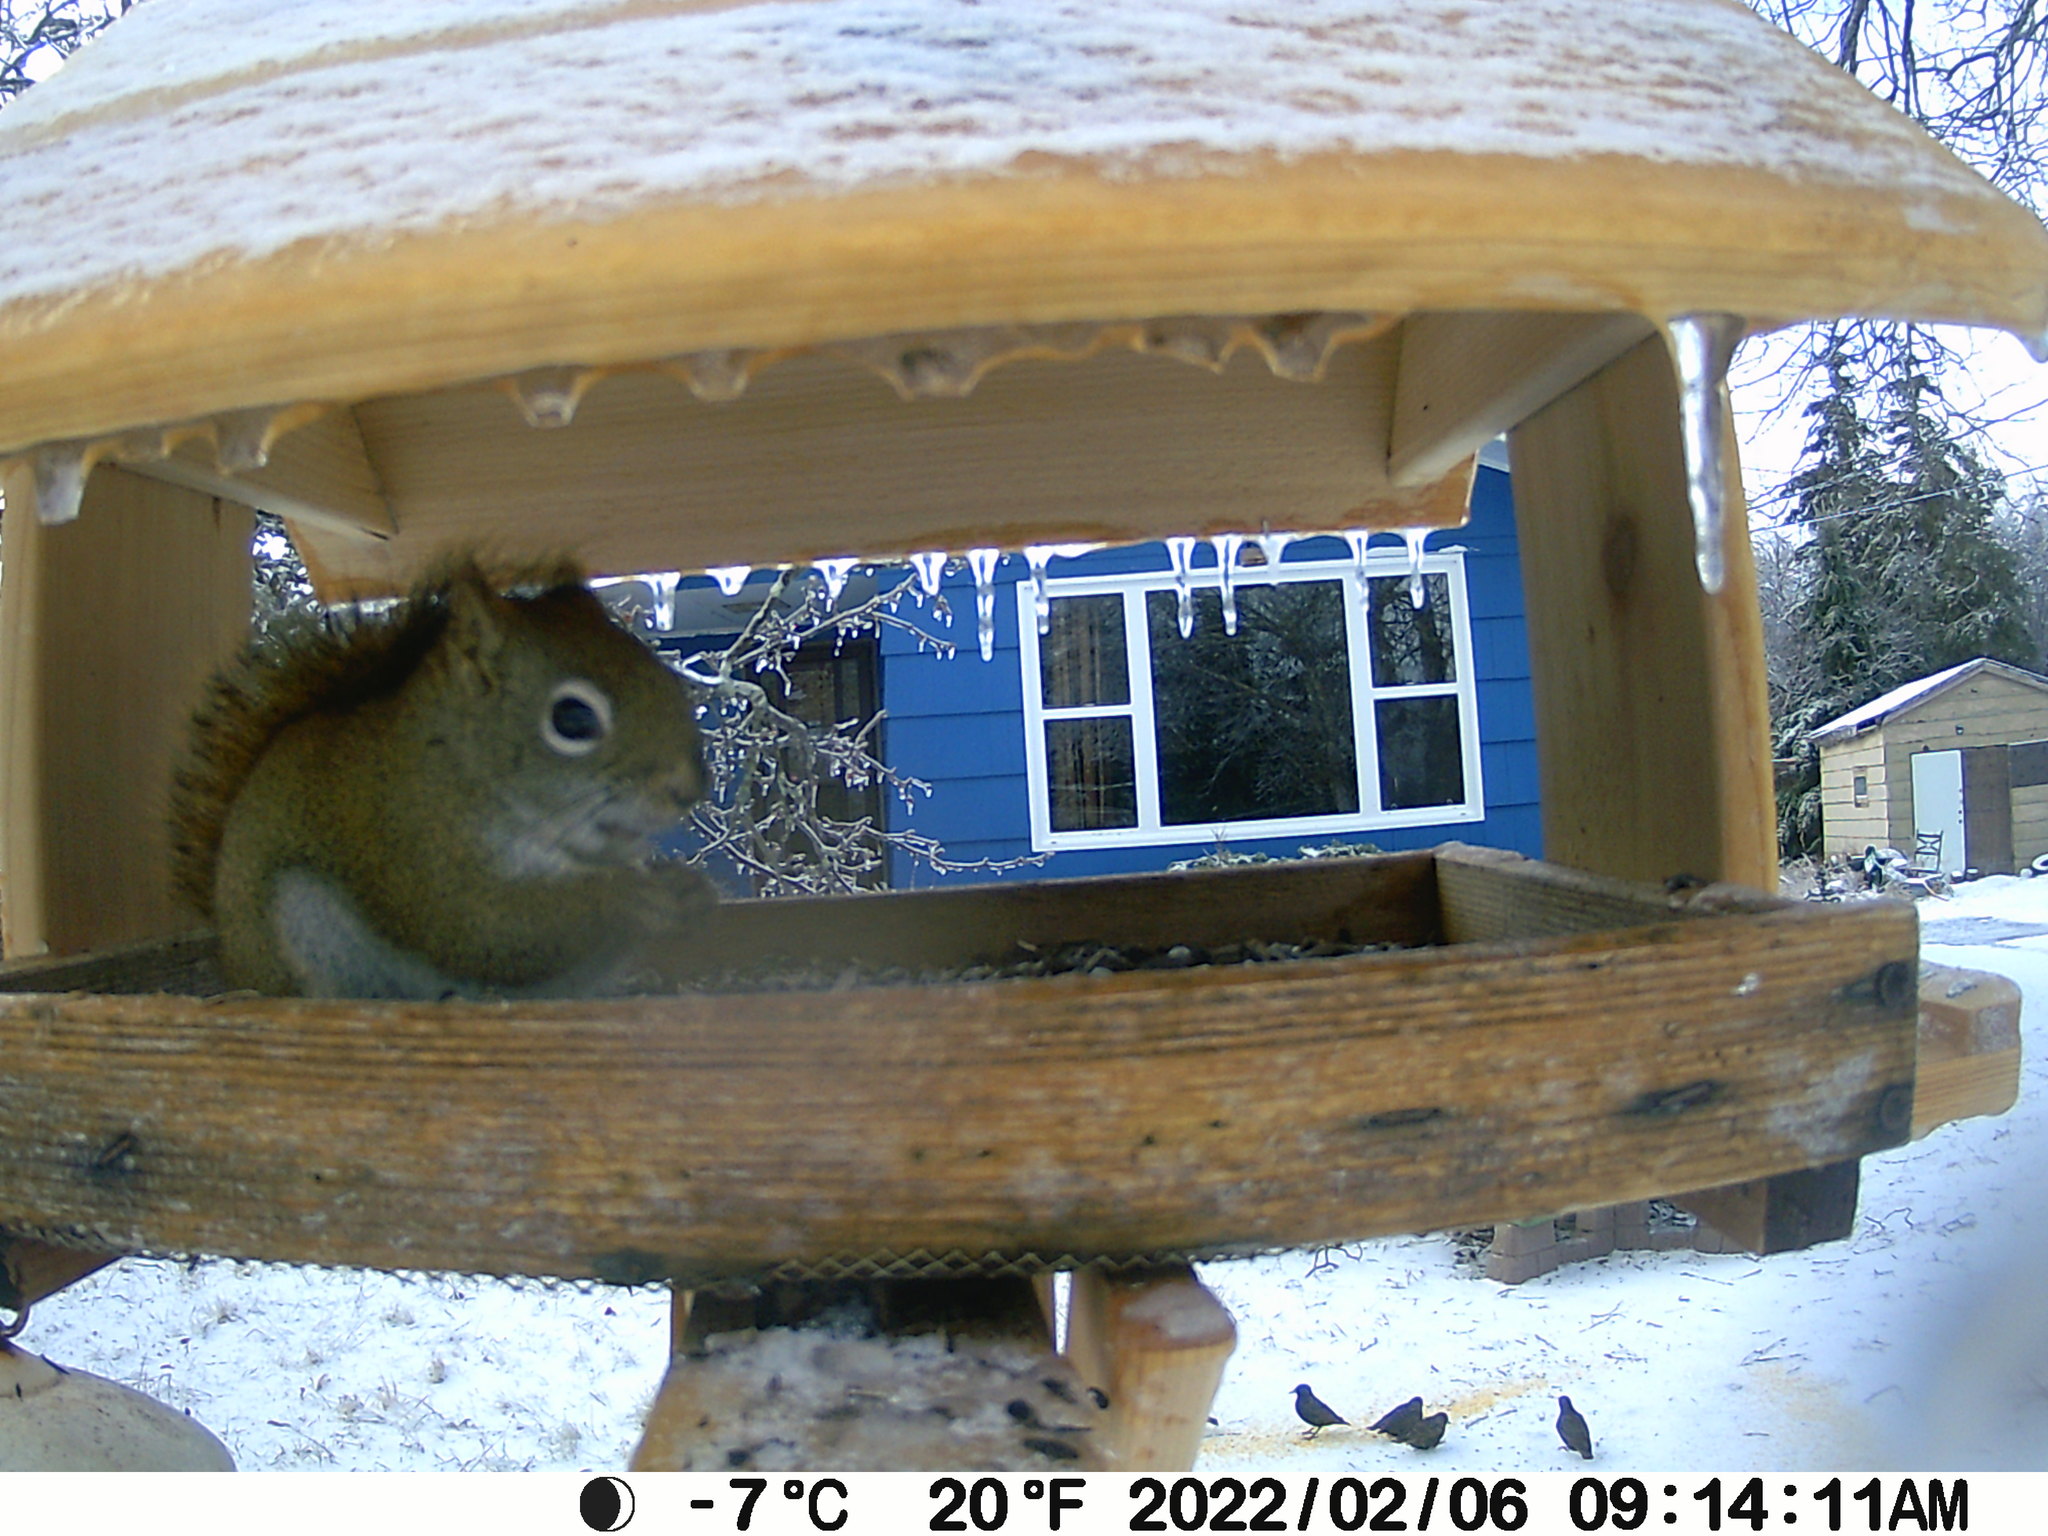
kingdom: Animalia
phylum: Chordata
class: Aves
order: Passeriformes
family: Sturnidae
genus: Sturnus
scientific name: Sturnus vulgaris
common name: Common starling
